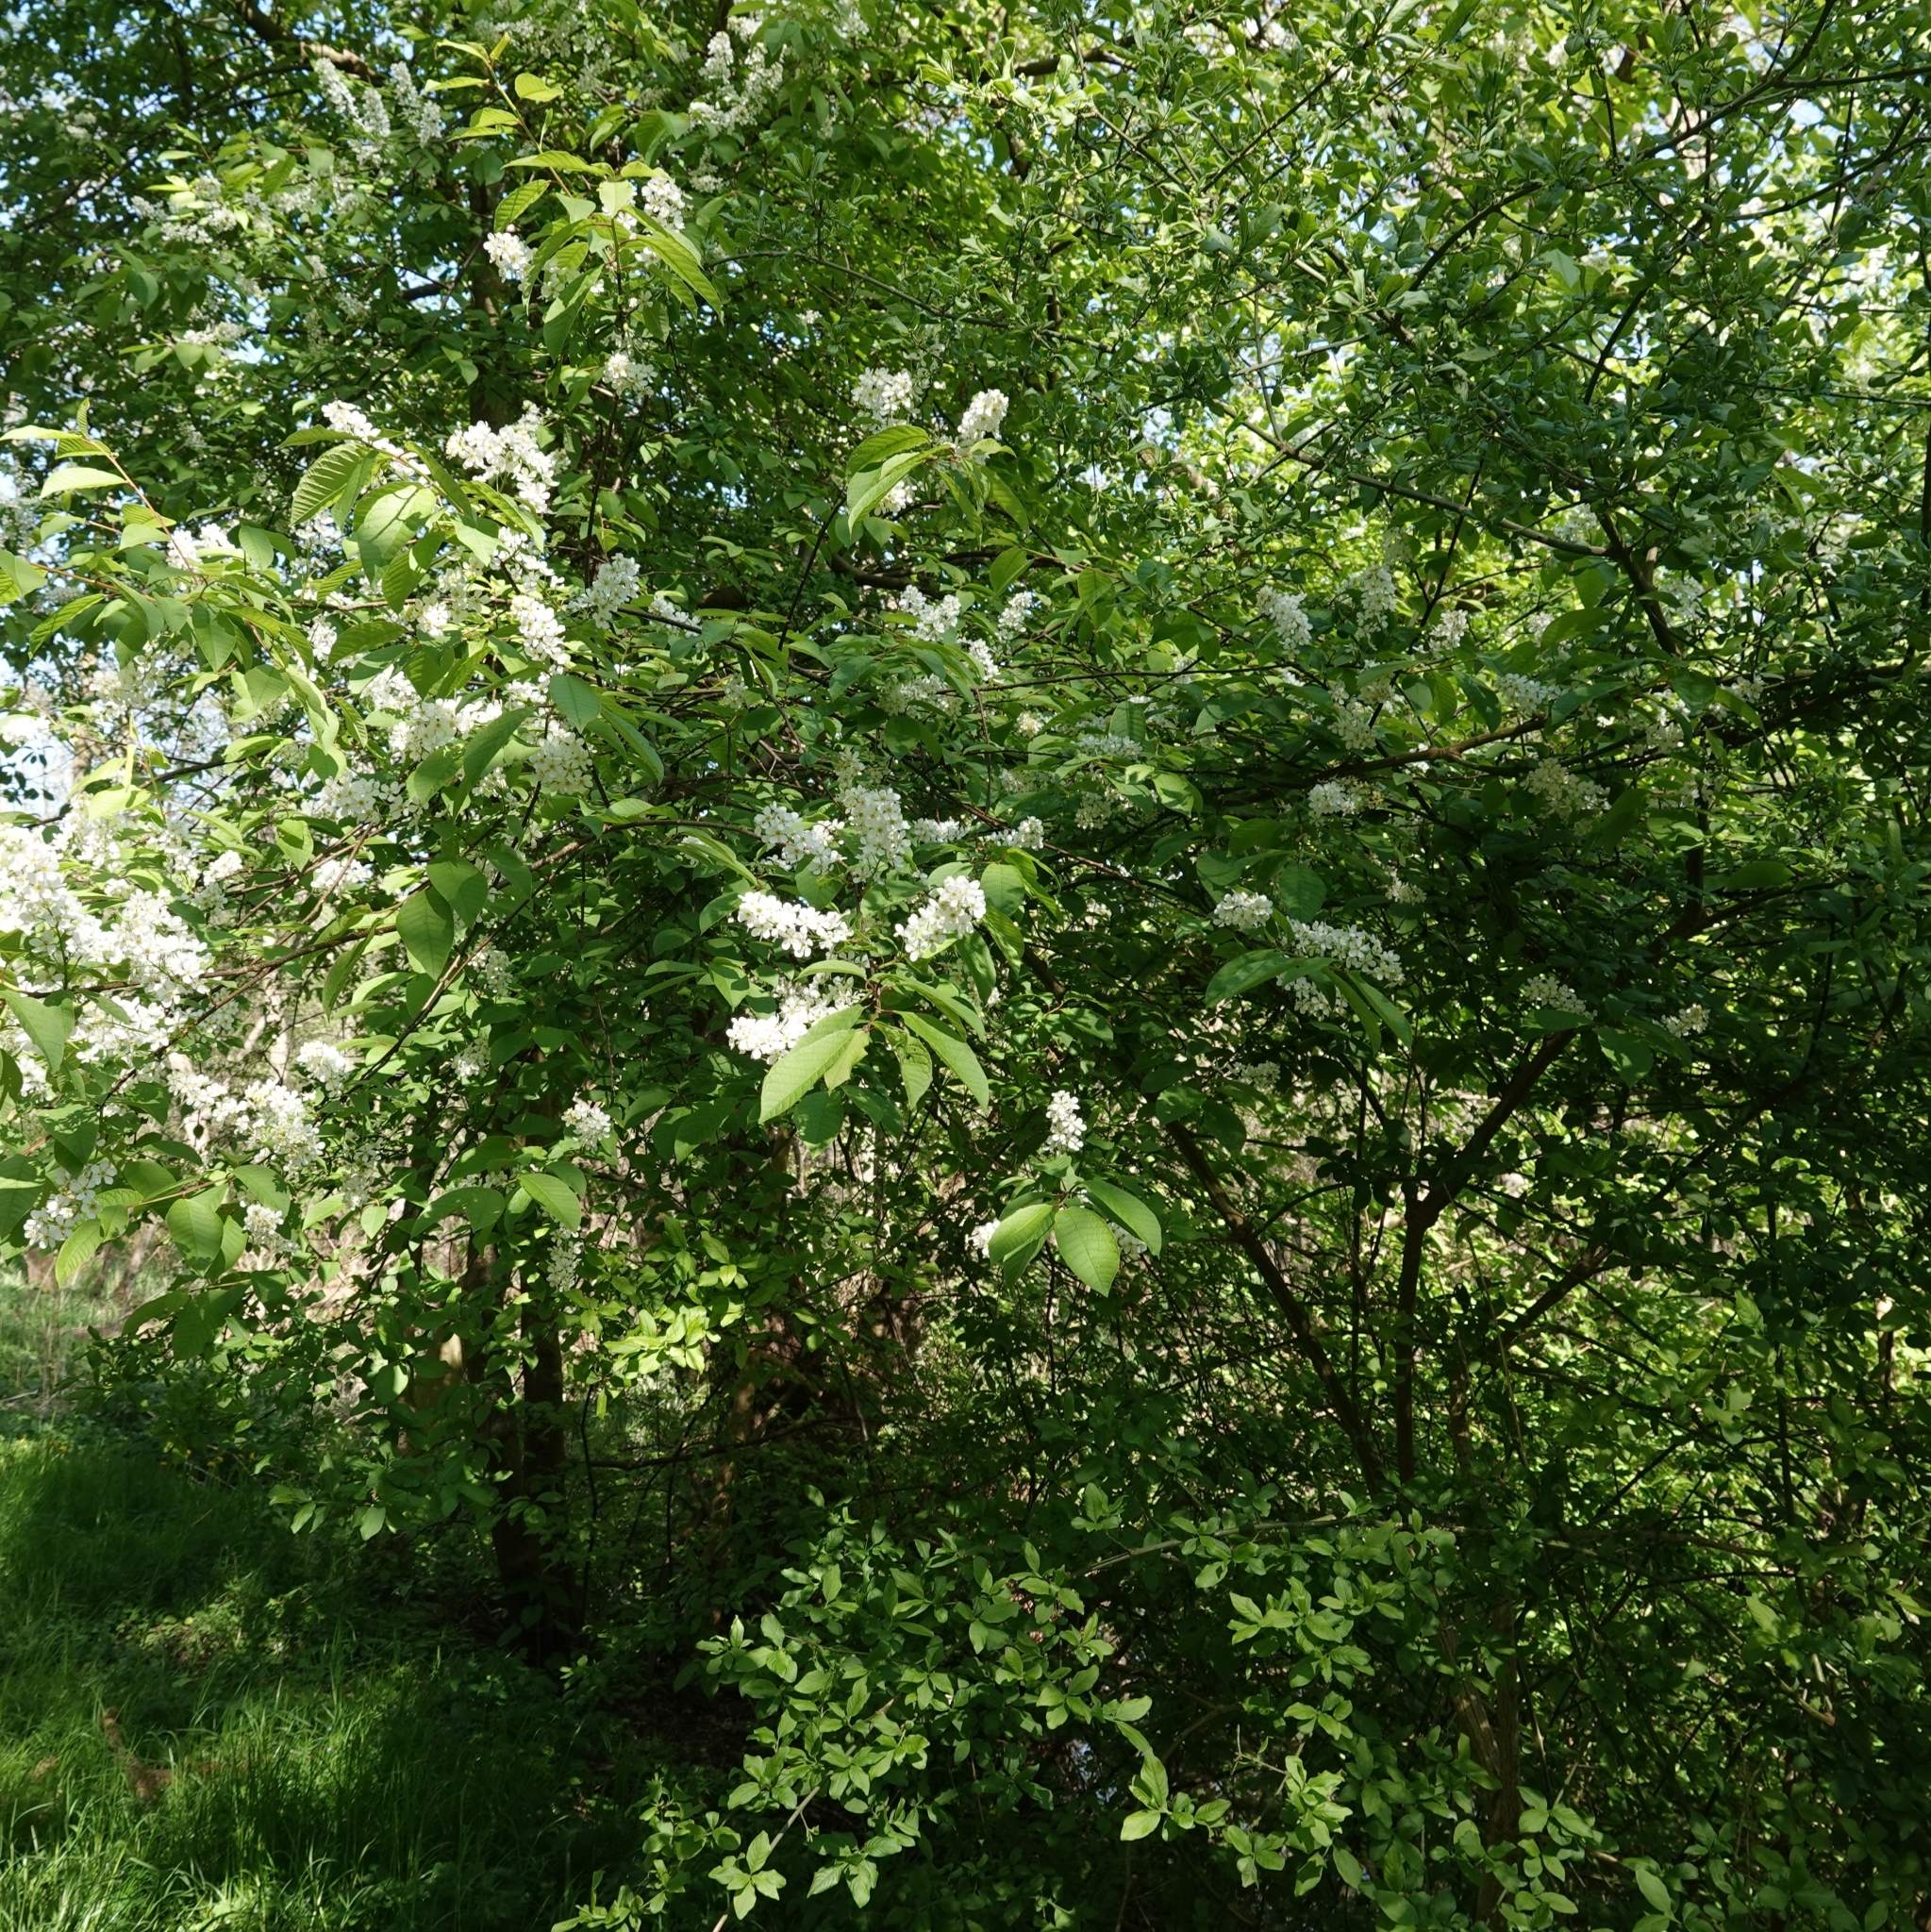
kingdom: Plantae
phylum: Tracheophyta
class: Magnoliopsida
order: Rosales
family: Rosaceae
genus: Prunus
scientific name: Prunus padus
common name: Bird cherry
